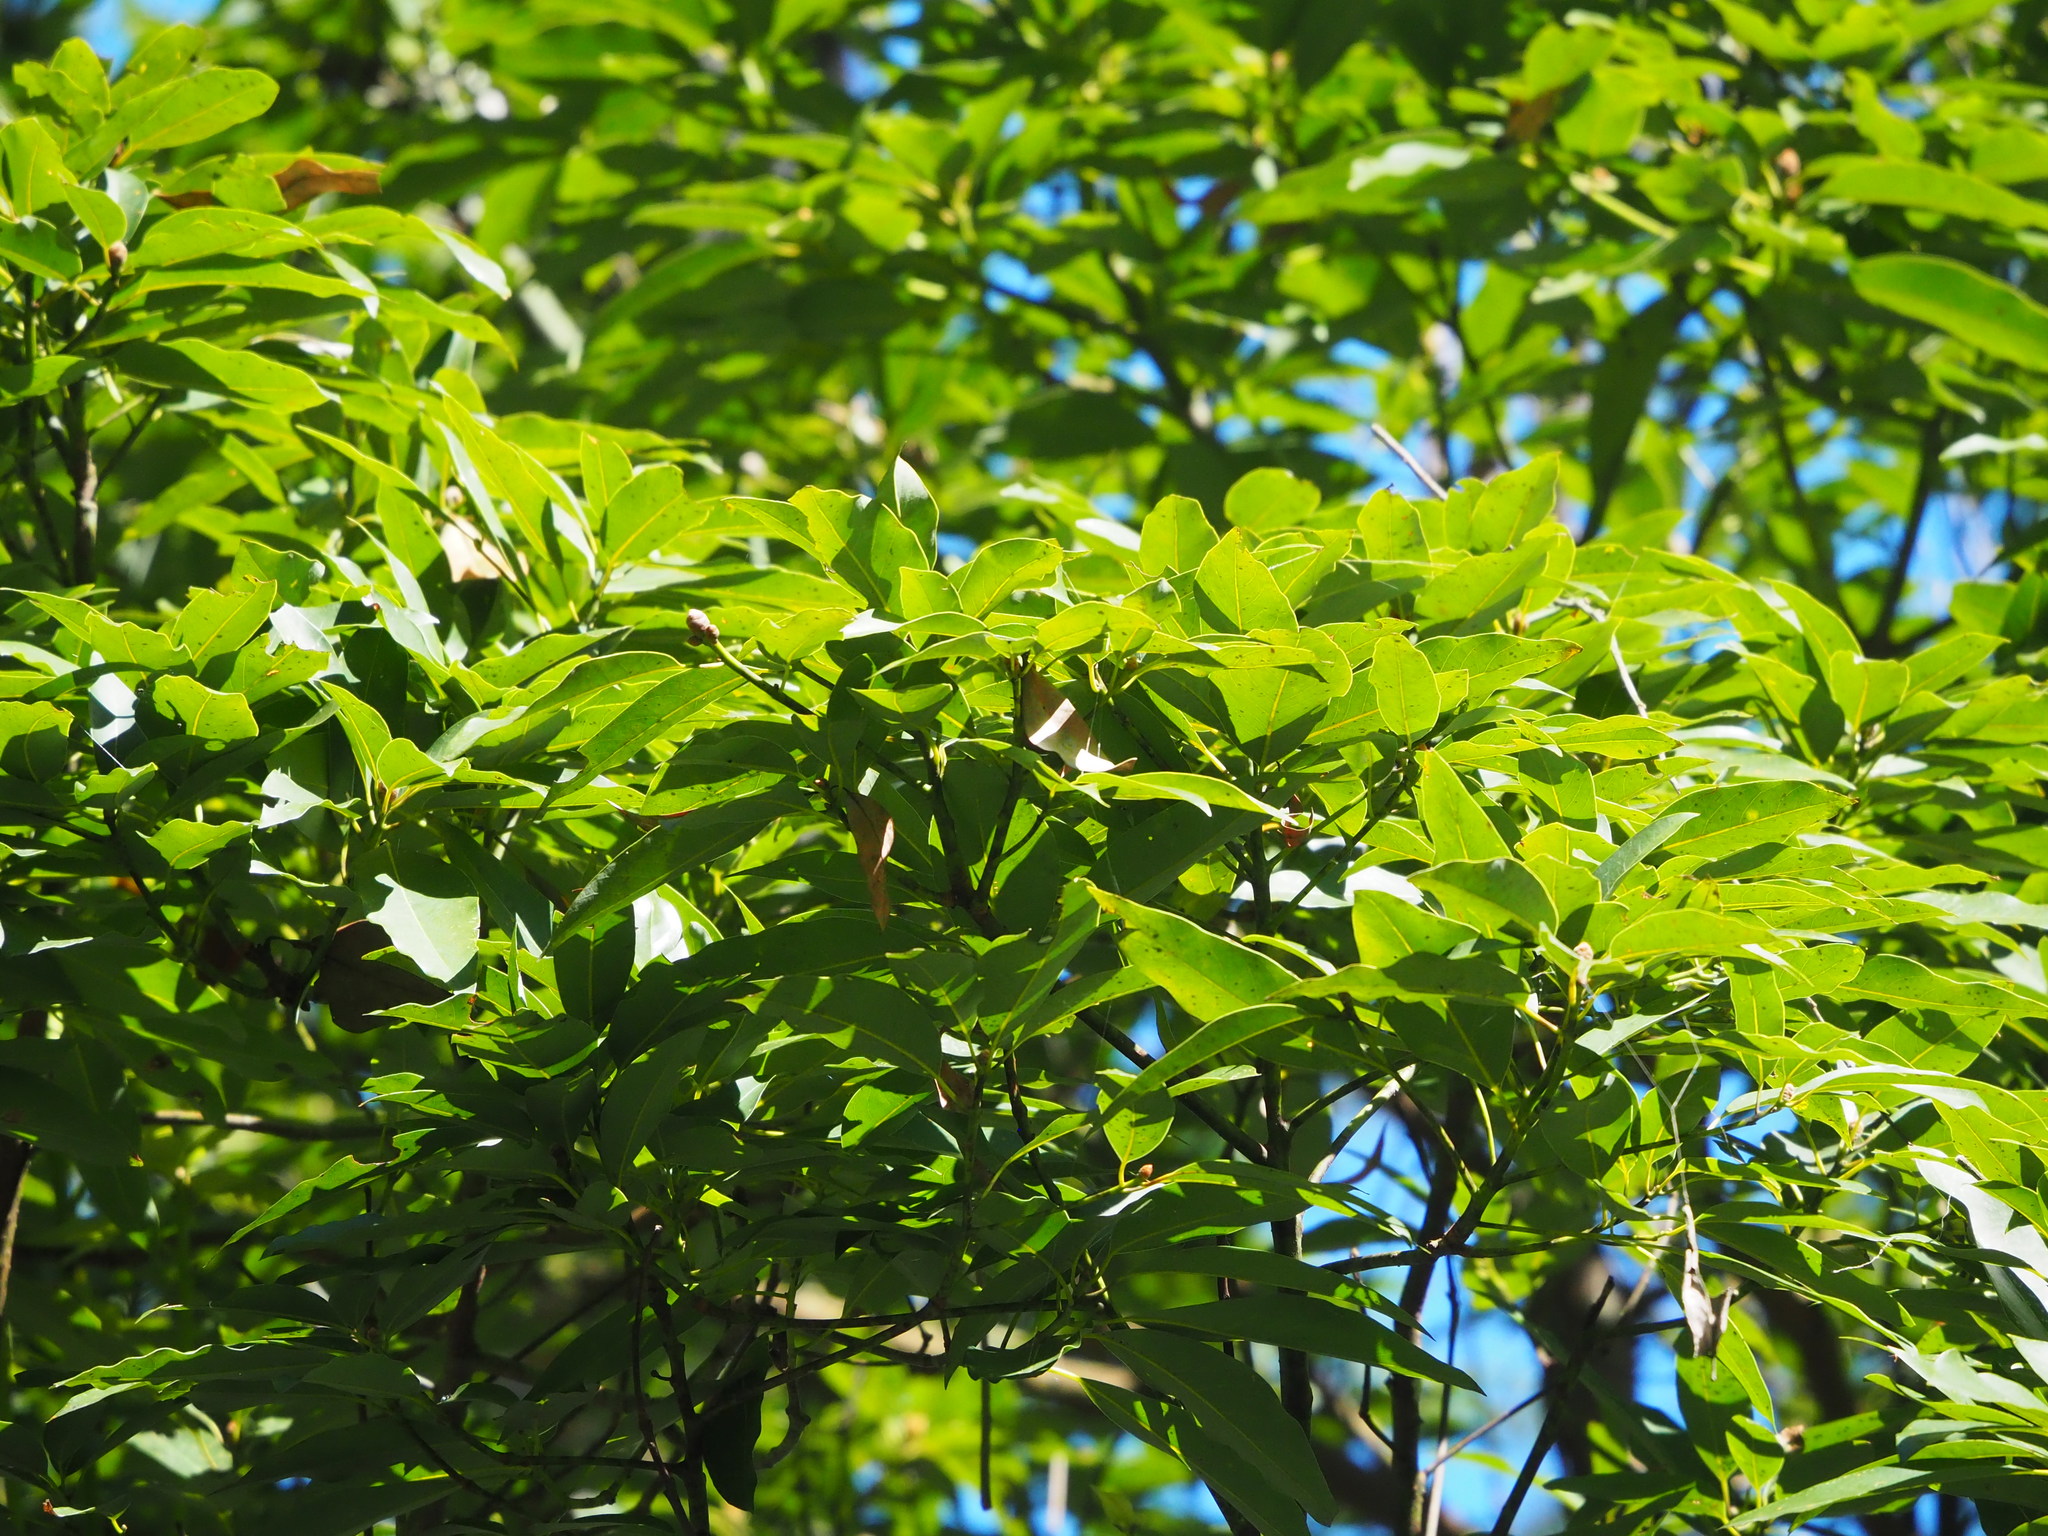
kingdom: Plantae
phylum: Tracheophyta
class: Magnoliopsida
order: Laurales
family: Lauraceae
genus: Machilus
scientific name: Machilus zuihoensis
